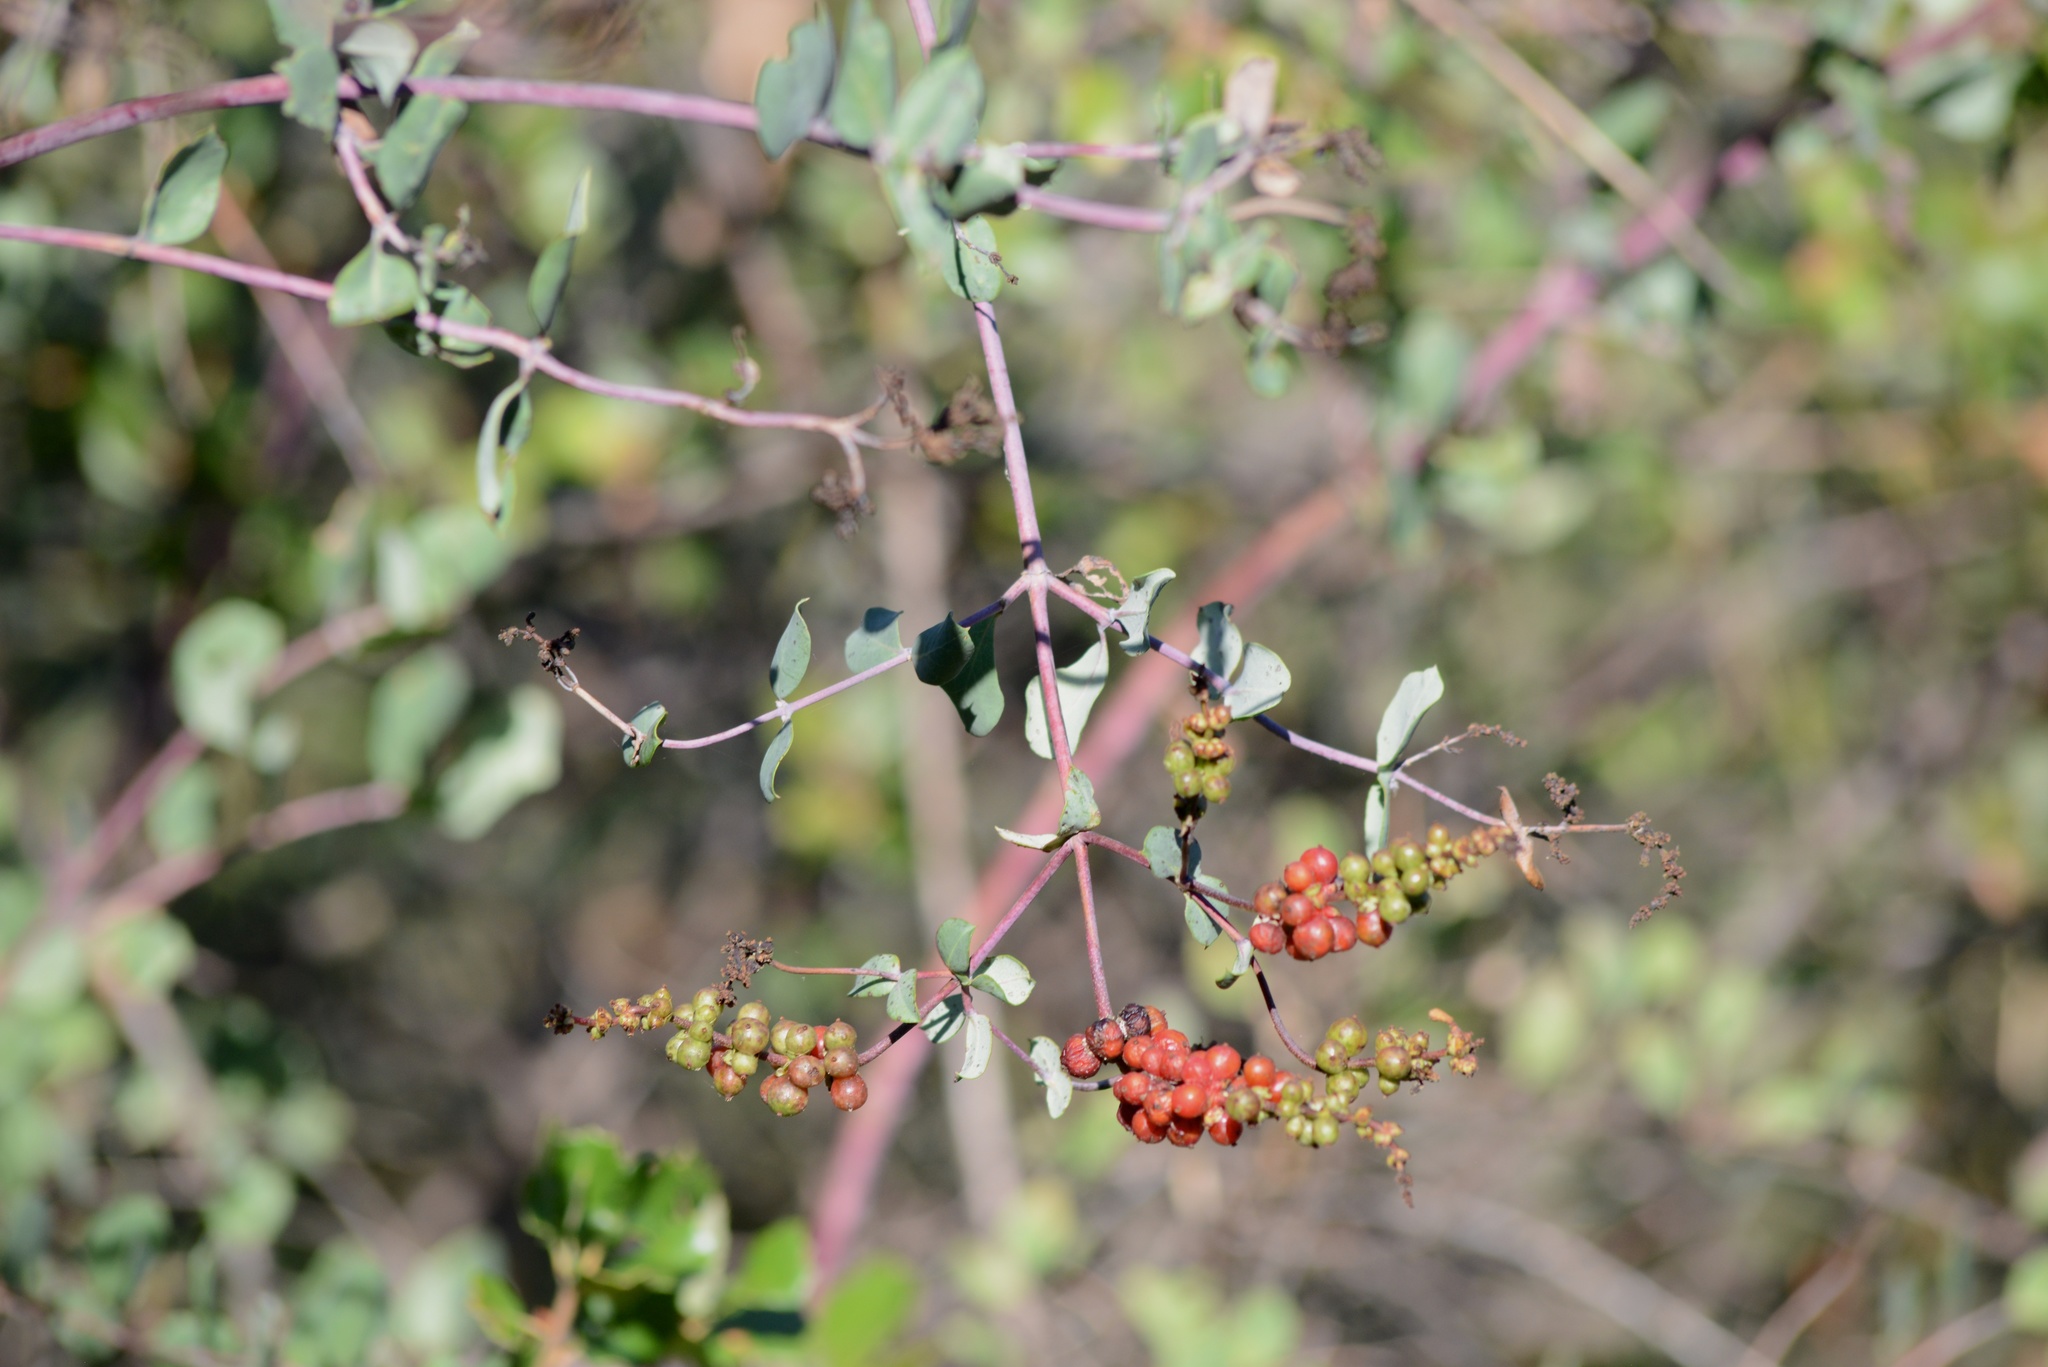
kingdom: Plantae
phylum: Tracheophyta
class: Magnoliopsida
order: Dipsacales
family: Caprifoliaceae
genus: Lonicera
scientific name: Lonicera subspicata
